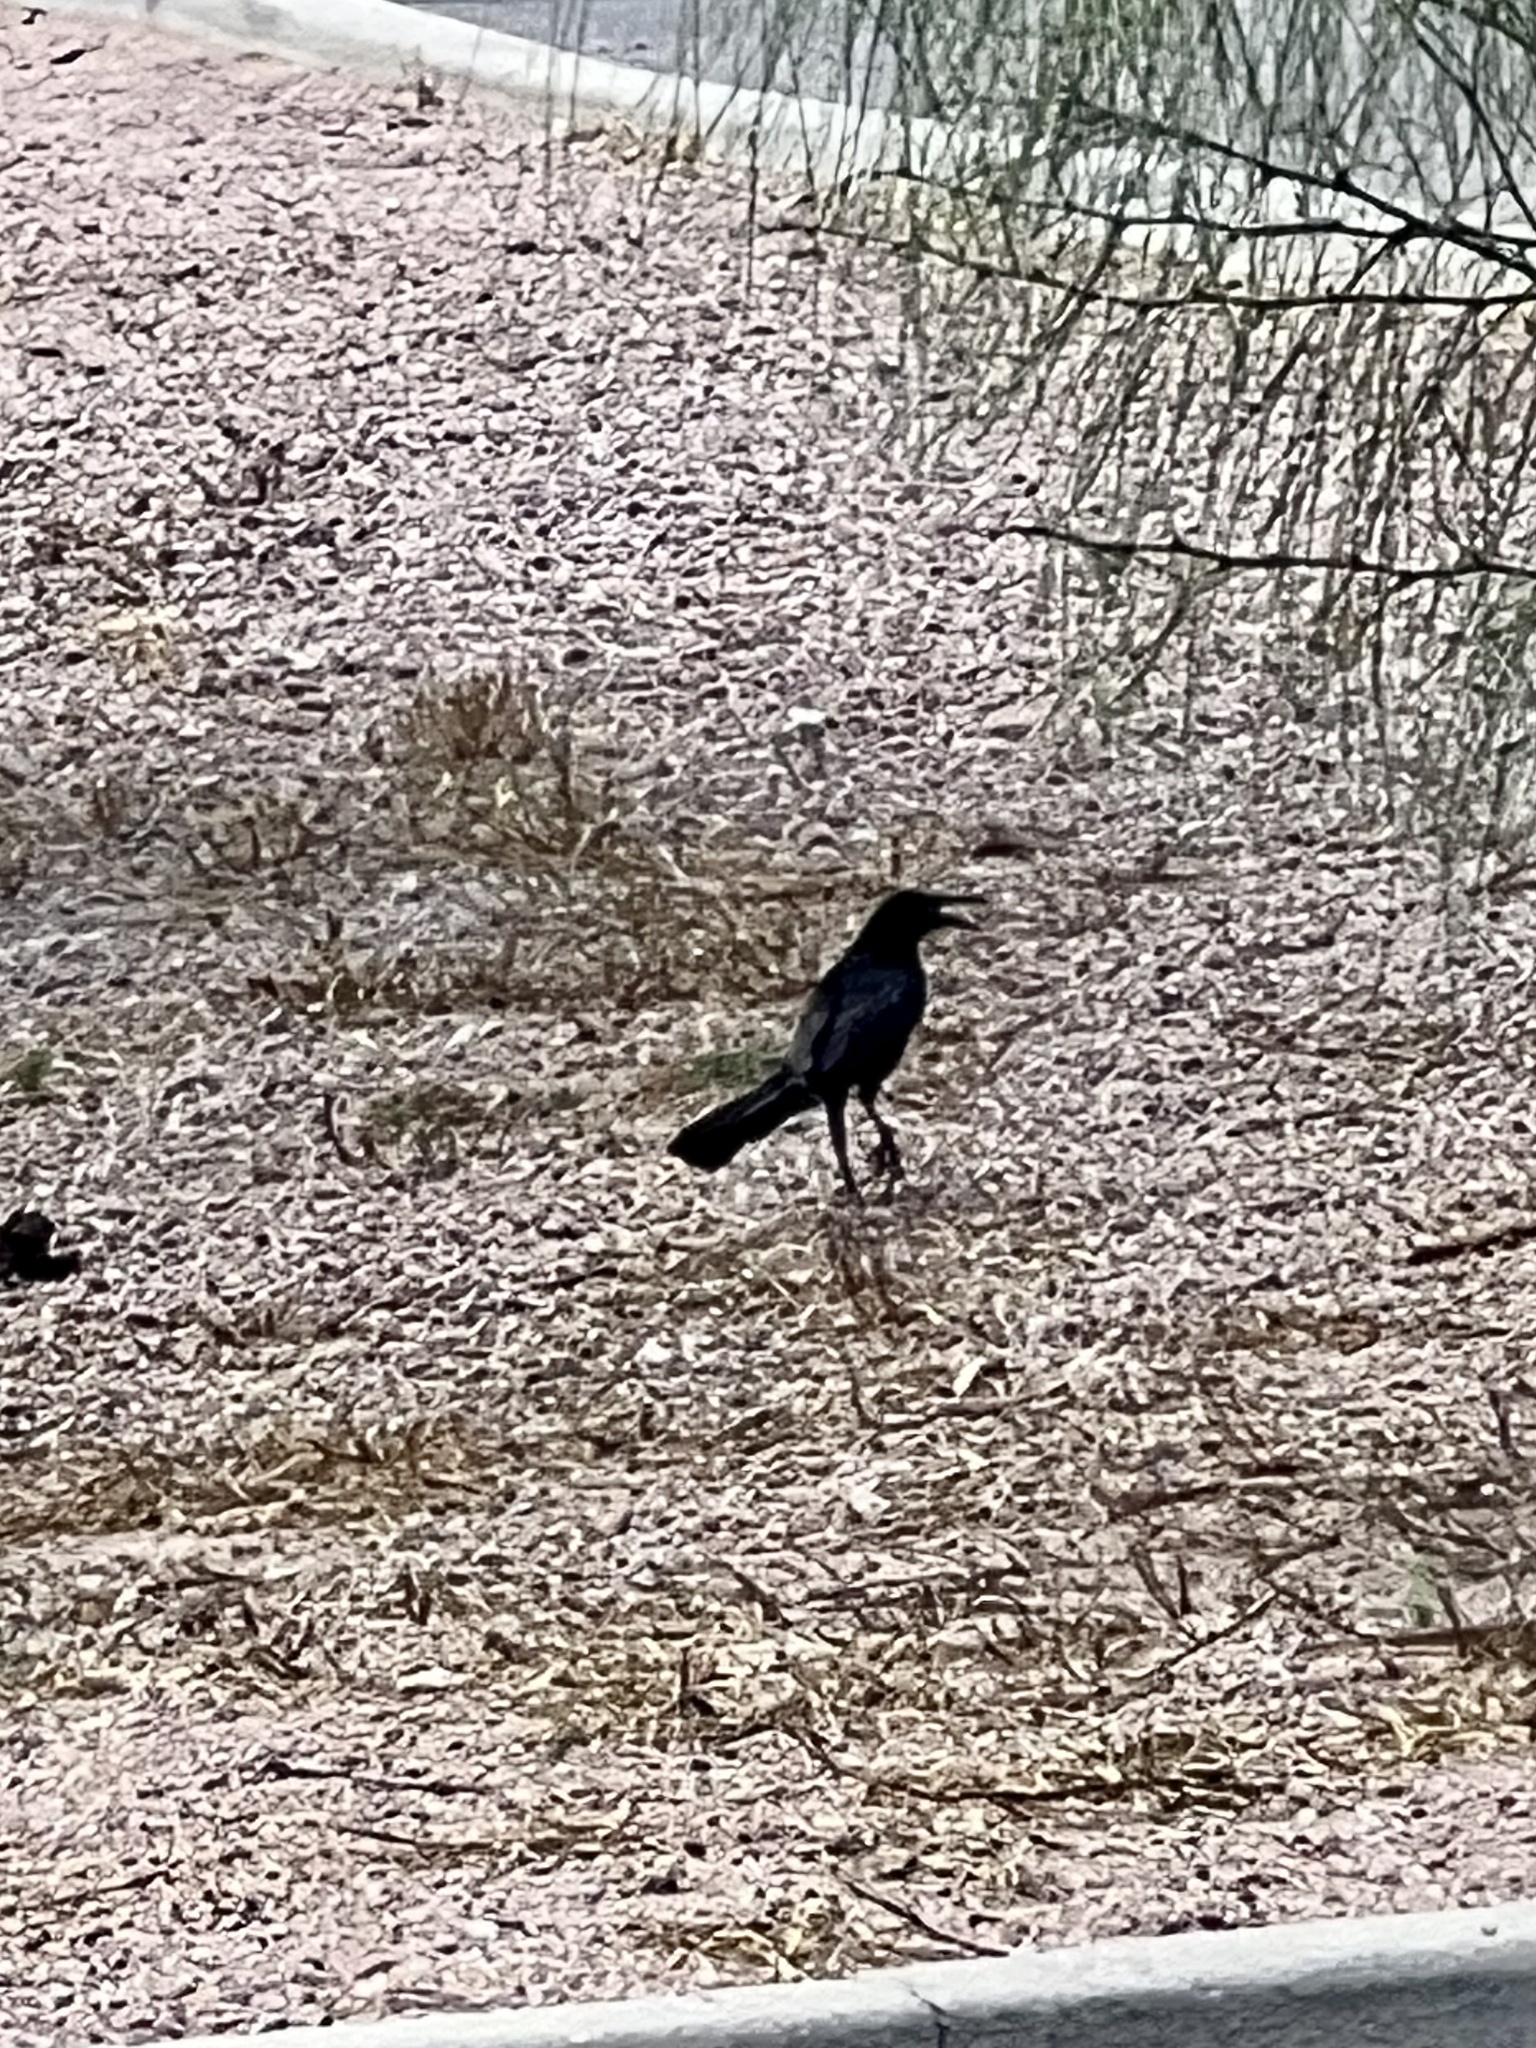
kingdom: Animalia
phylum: Chordata
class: Aves
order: Passeriformes
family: Icteridae
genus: Quiscalus
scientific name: Quiscalus mexicanus
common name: Great-tailed grackle
